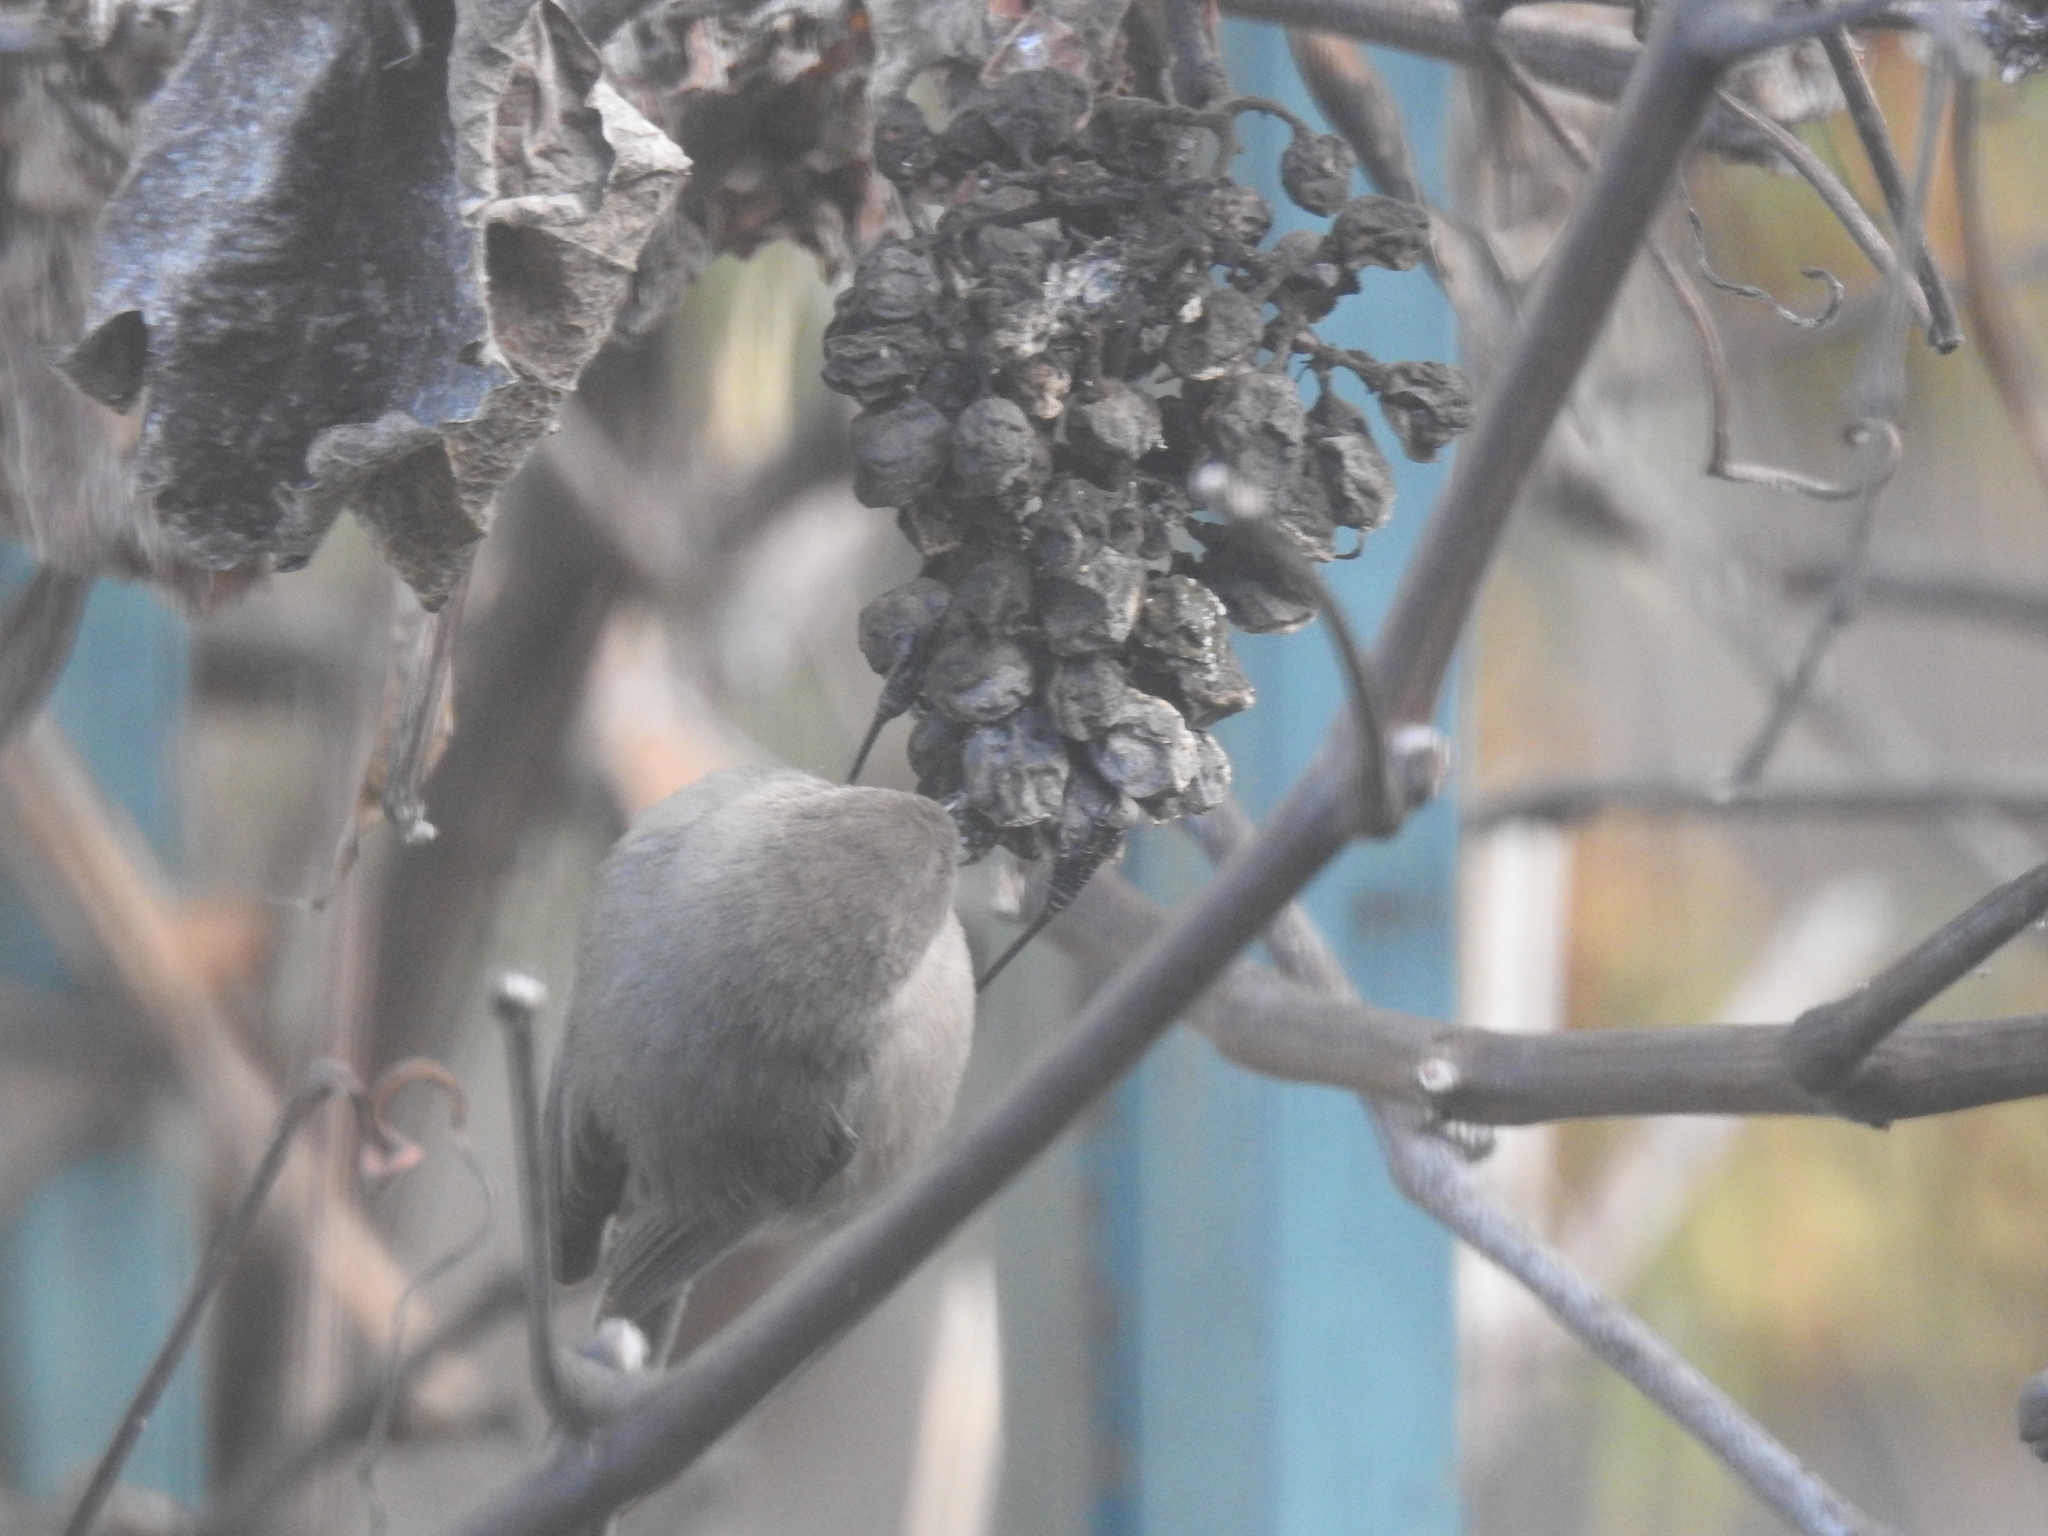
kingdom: Animalia
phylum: Chordata
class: Aves
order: Passeriformes
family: Aegithalidae
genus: Psaltriparus
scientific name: Psaltriparus minimus
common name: American bushtit
